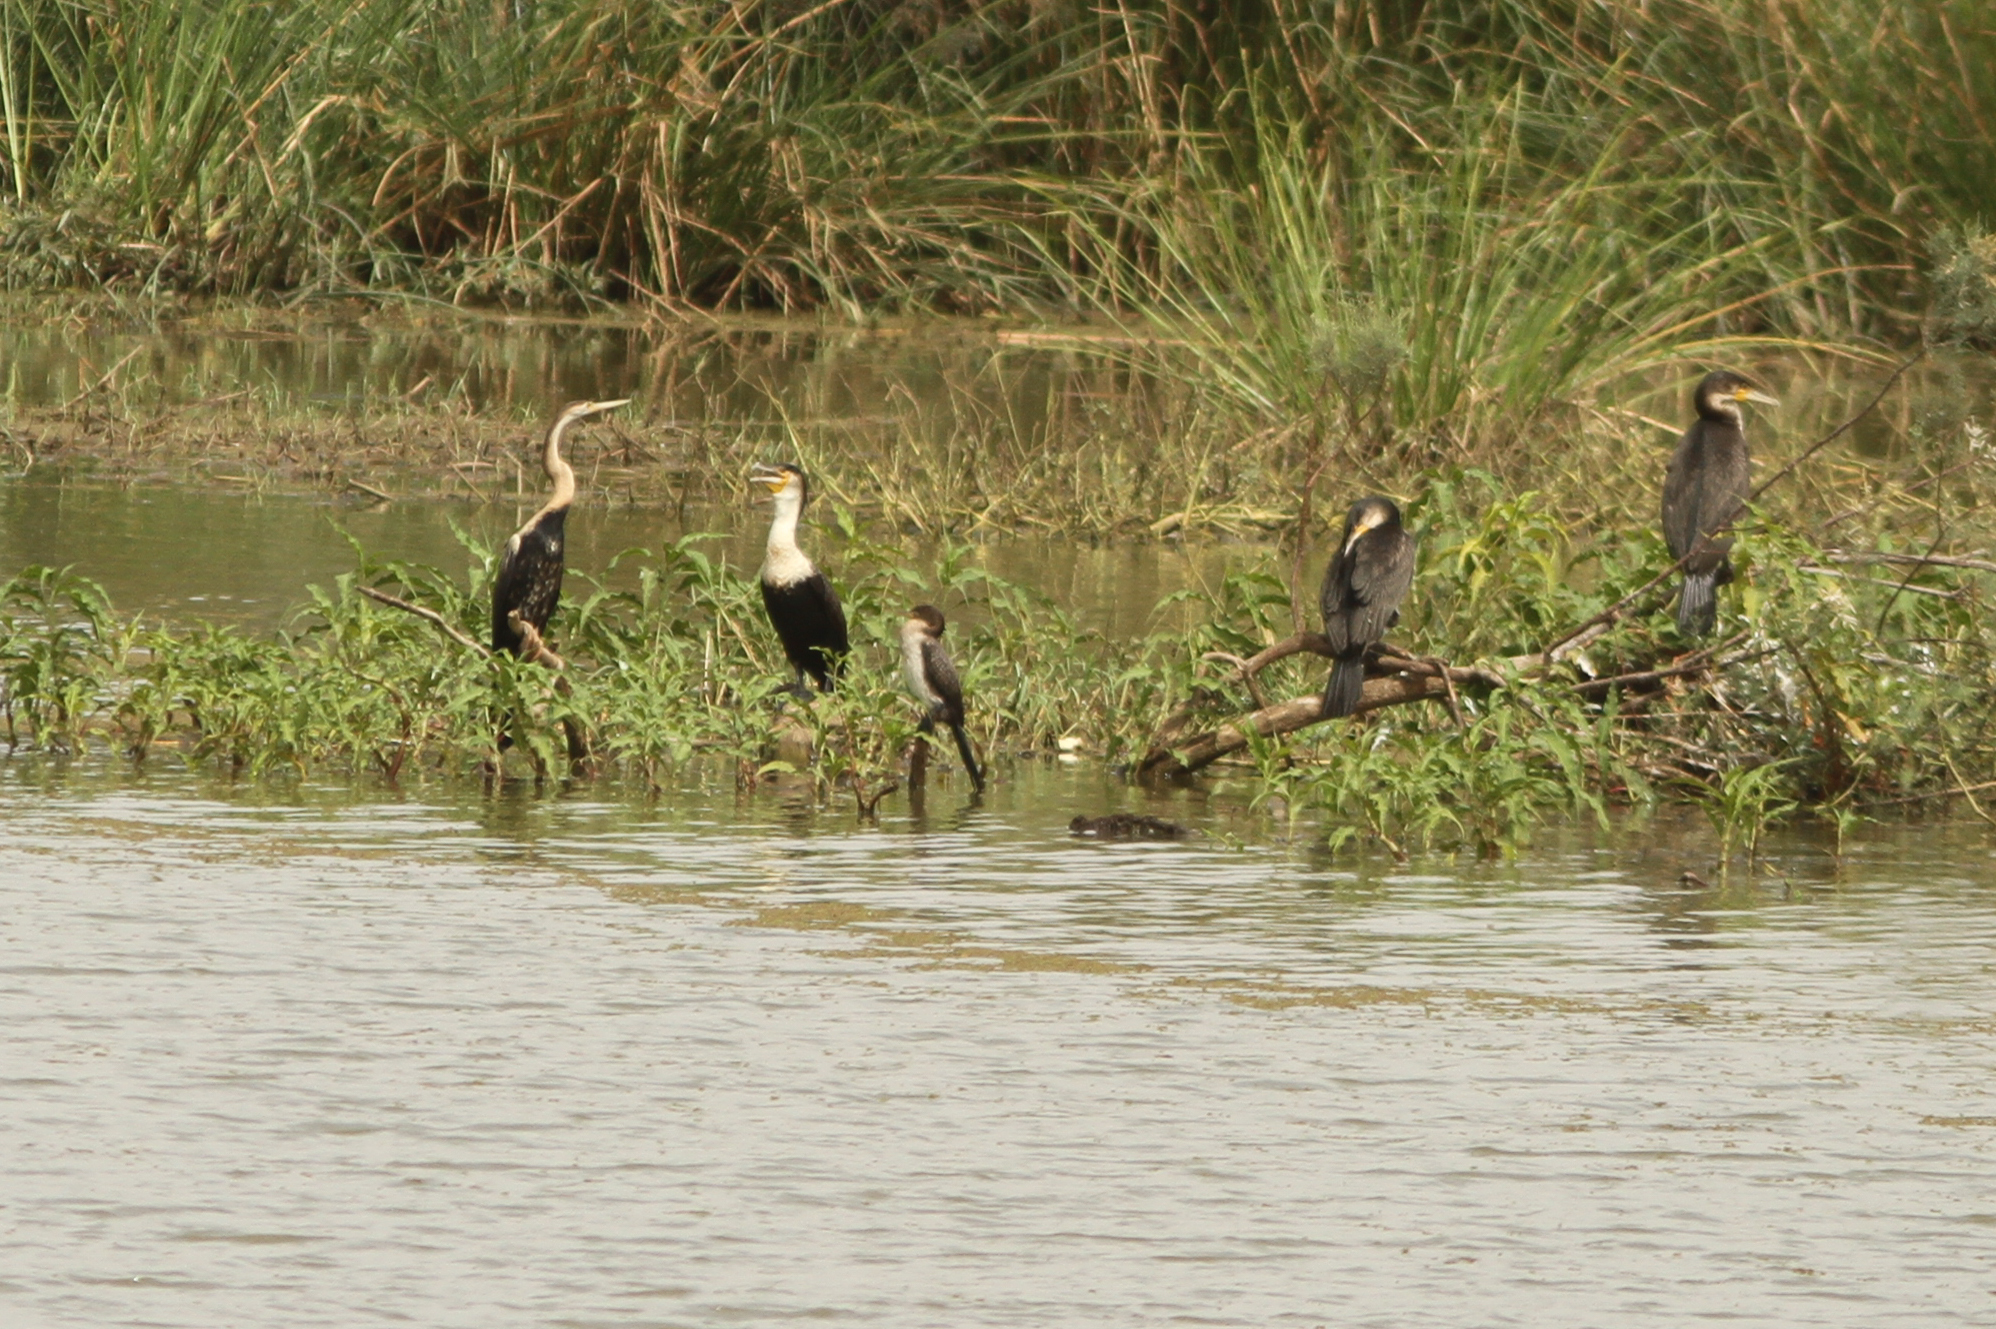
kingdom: Animalia
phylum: Chordata
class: Aves
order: Suliformes
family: Phalacrocoracidae
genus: Microcarbo
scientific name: Microcarbo africanus
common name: Long-tailed cormorant
